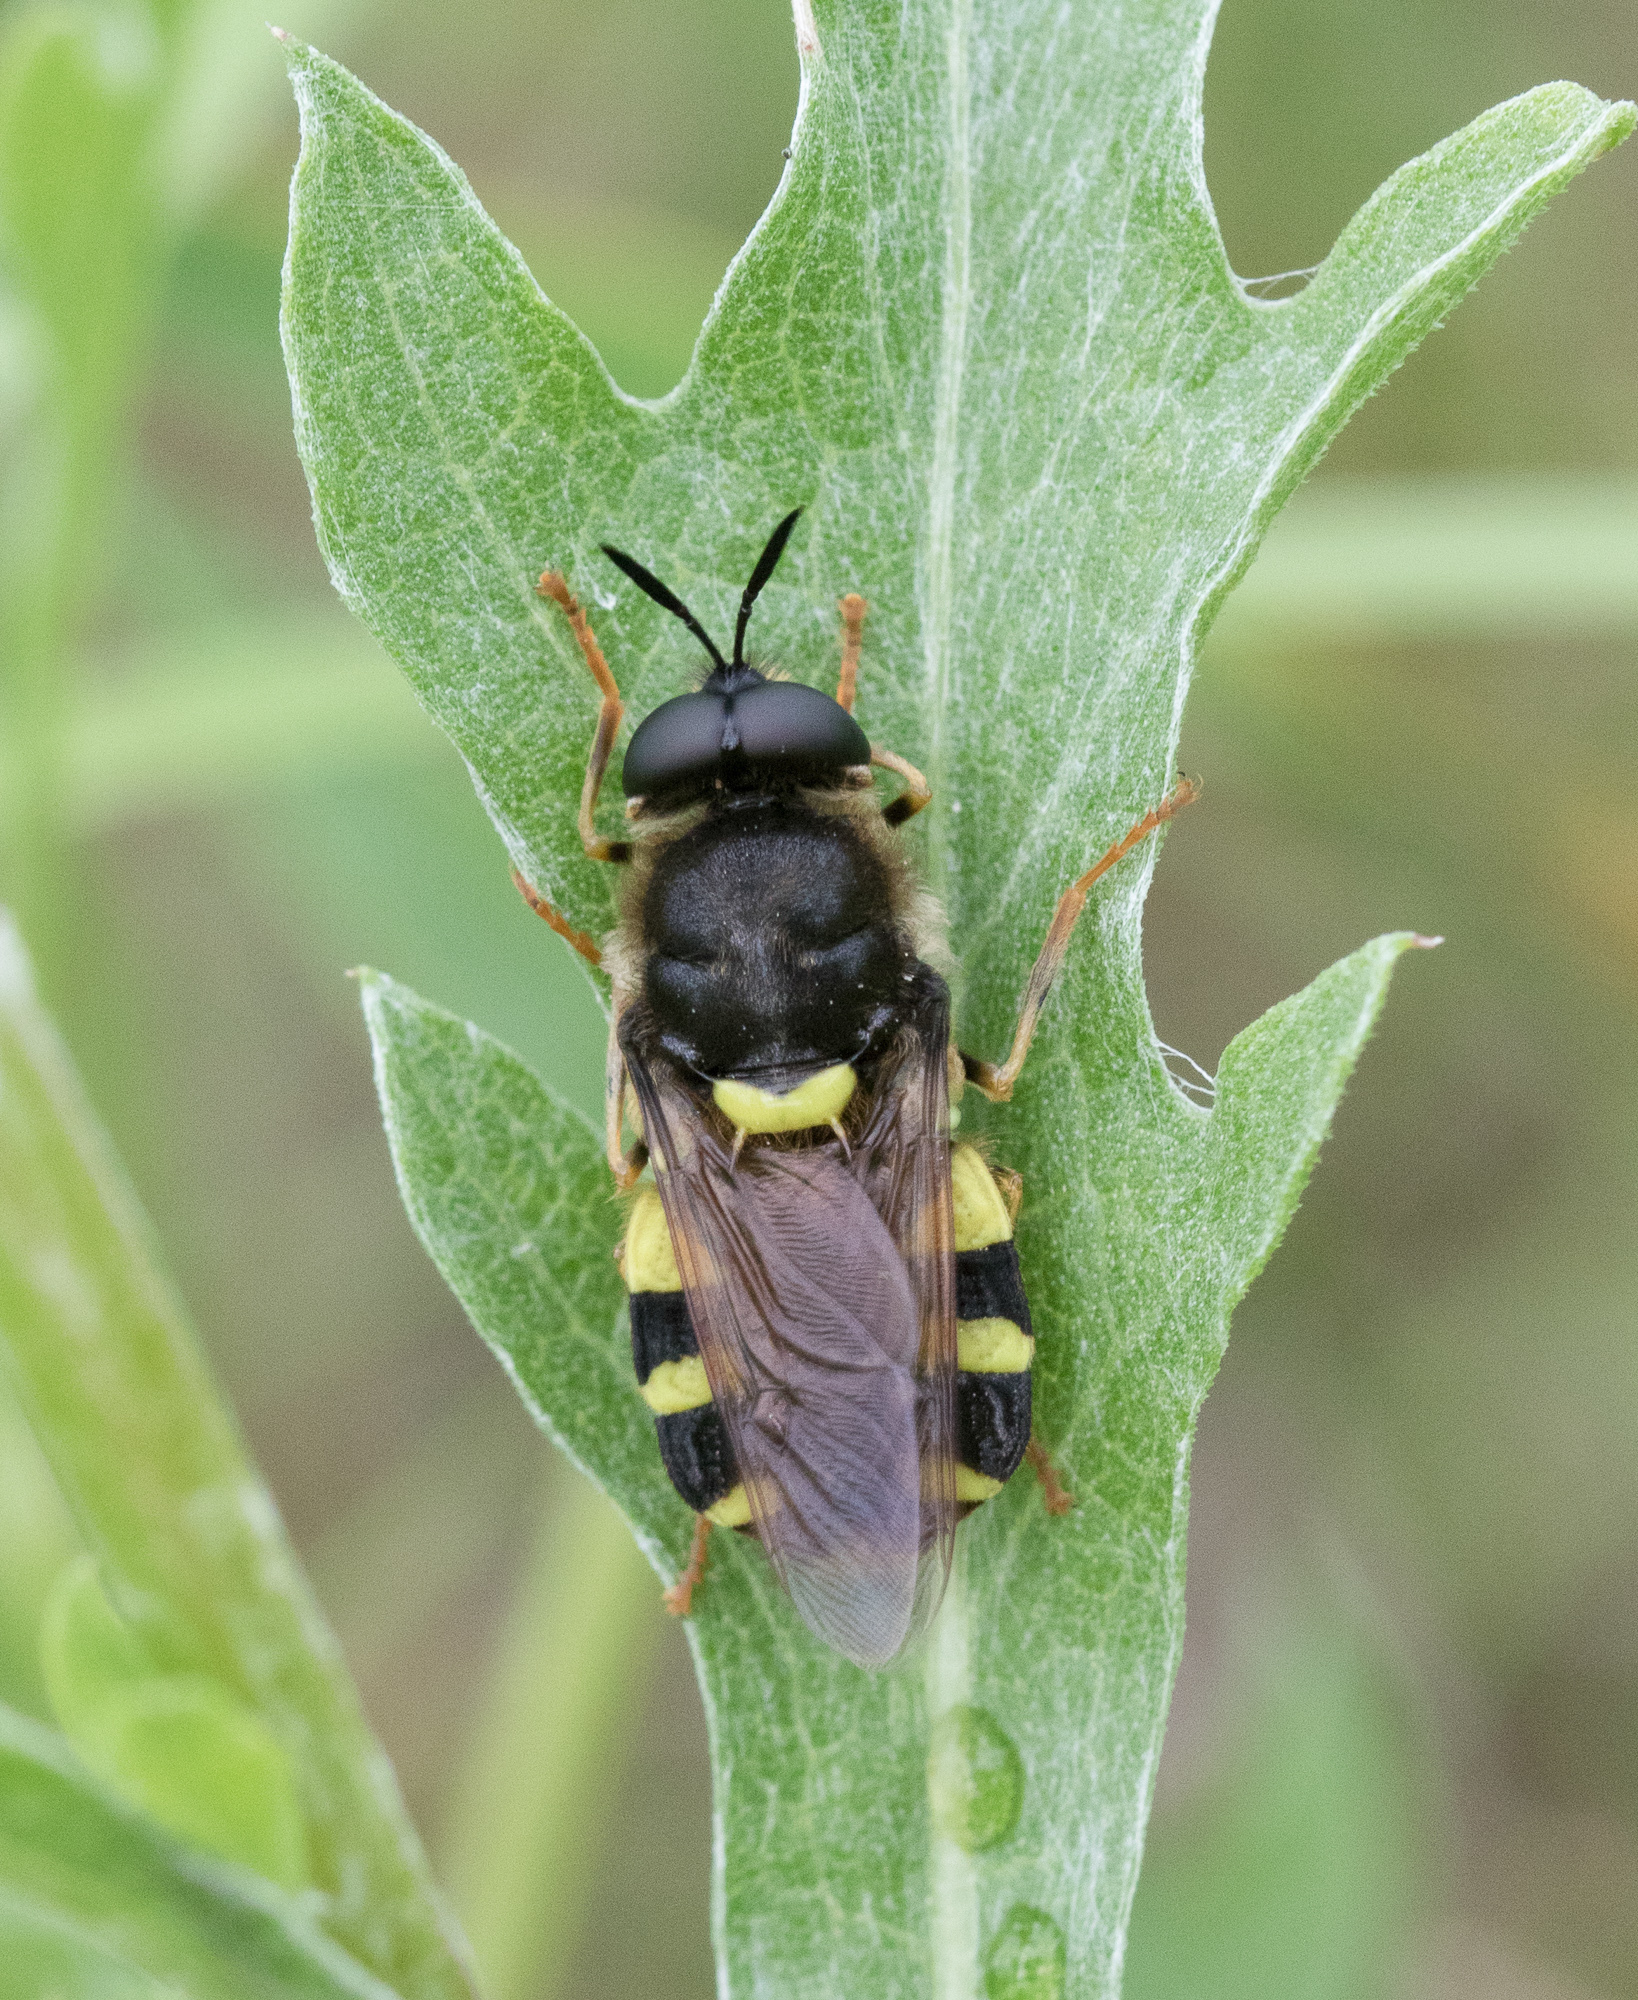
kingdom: Animalia
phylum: Arthropoda
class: Insecta
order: Diptera
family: Stratiomyidae
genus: Stratiomys
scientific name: Stratiomys chamaeleon
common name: Clubbed general
